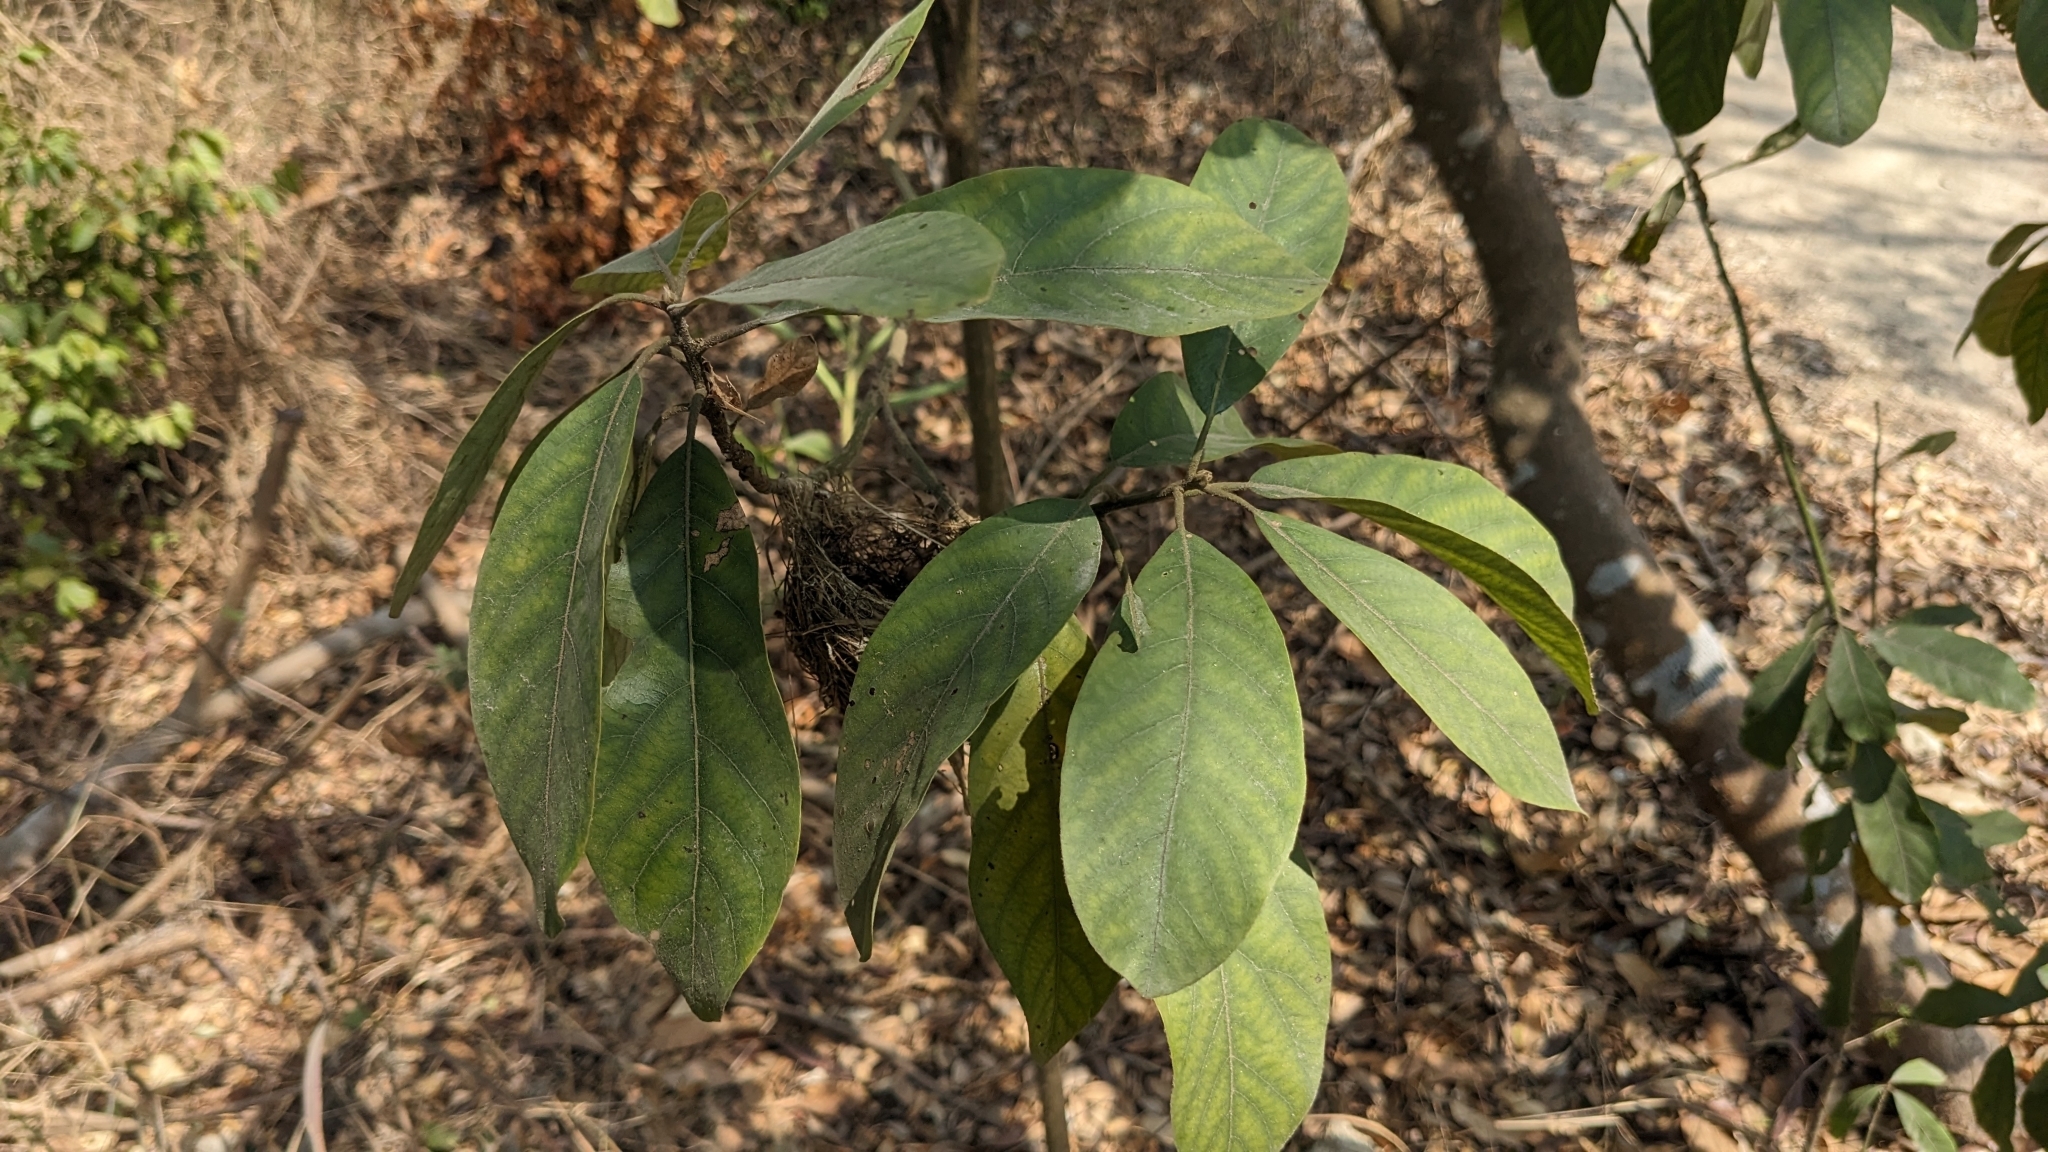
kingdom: Plantae
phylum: Tracheophyta
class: Magnoliopsida
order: Laurales
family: Lauraceae
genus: Litsea
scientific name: Litsea glutinosa
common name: Indian-laurel
